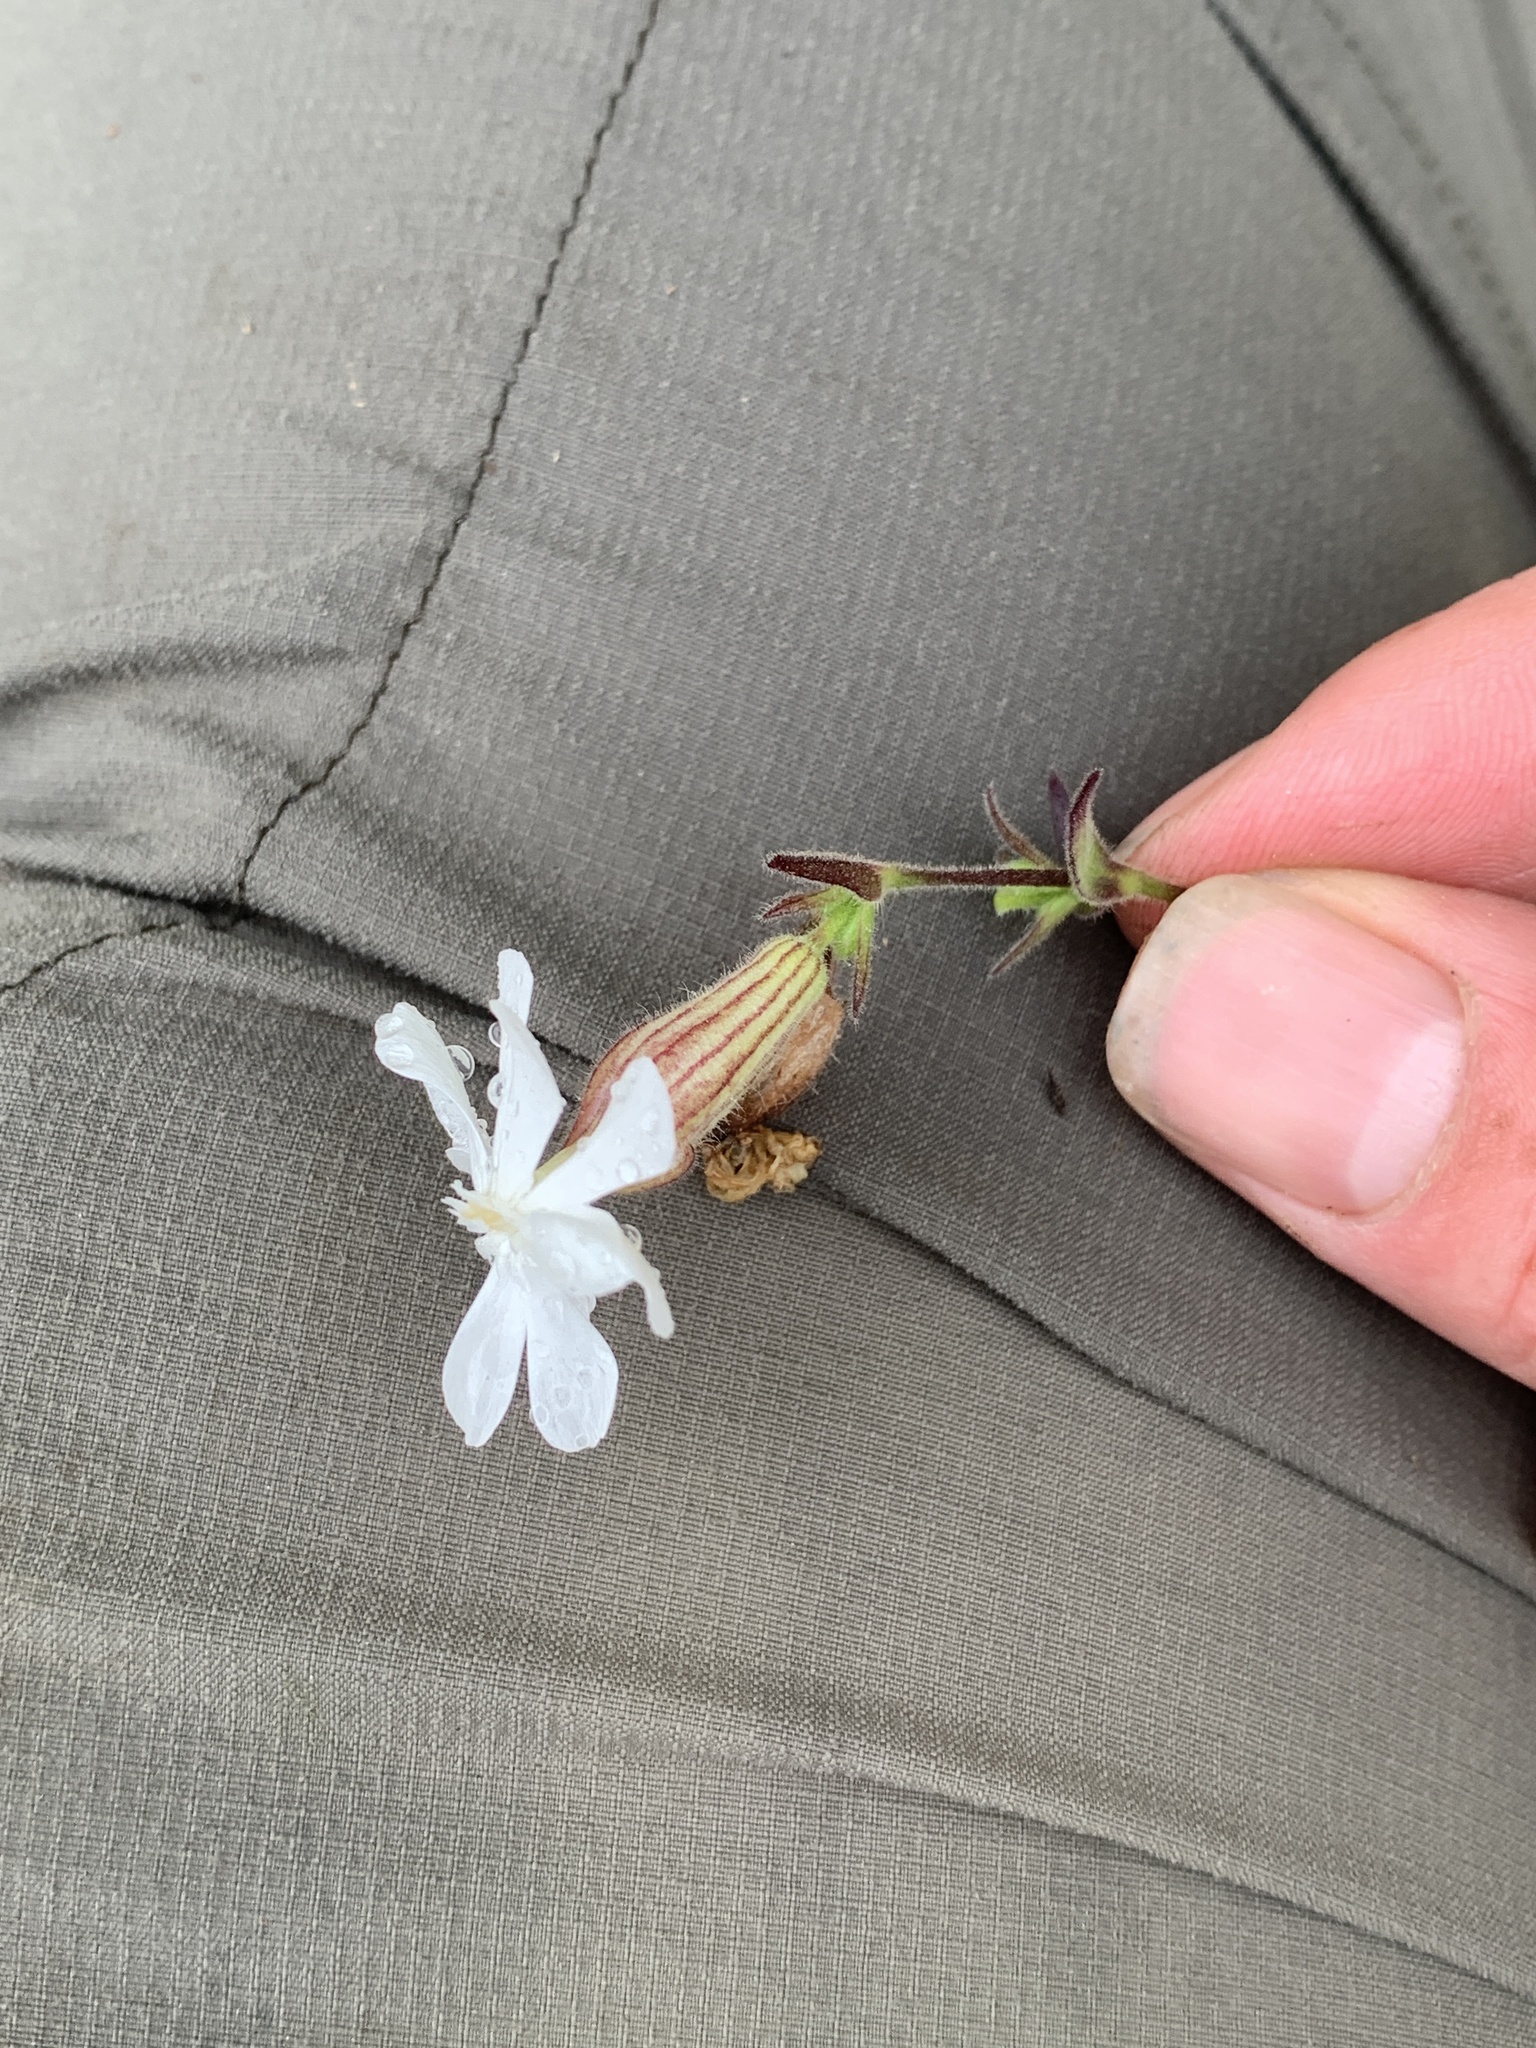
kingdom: Plantae
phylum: Tracheophyta
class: Magnoliopsida
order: Caryophyllales
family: Caryophyllaceae
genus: Silene
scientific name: Silene latifolia
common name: White campion
